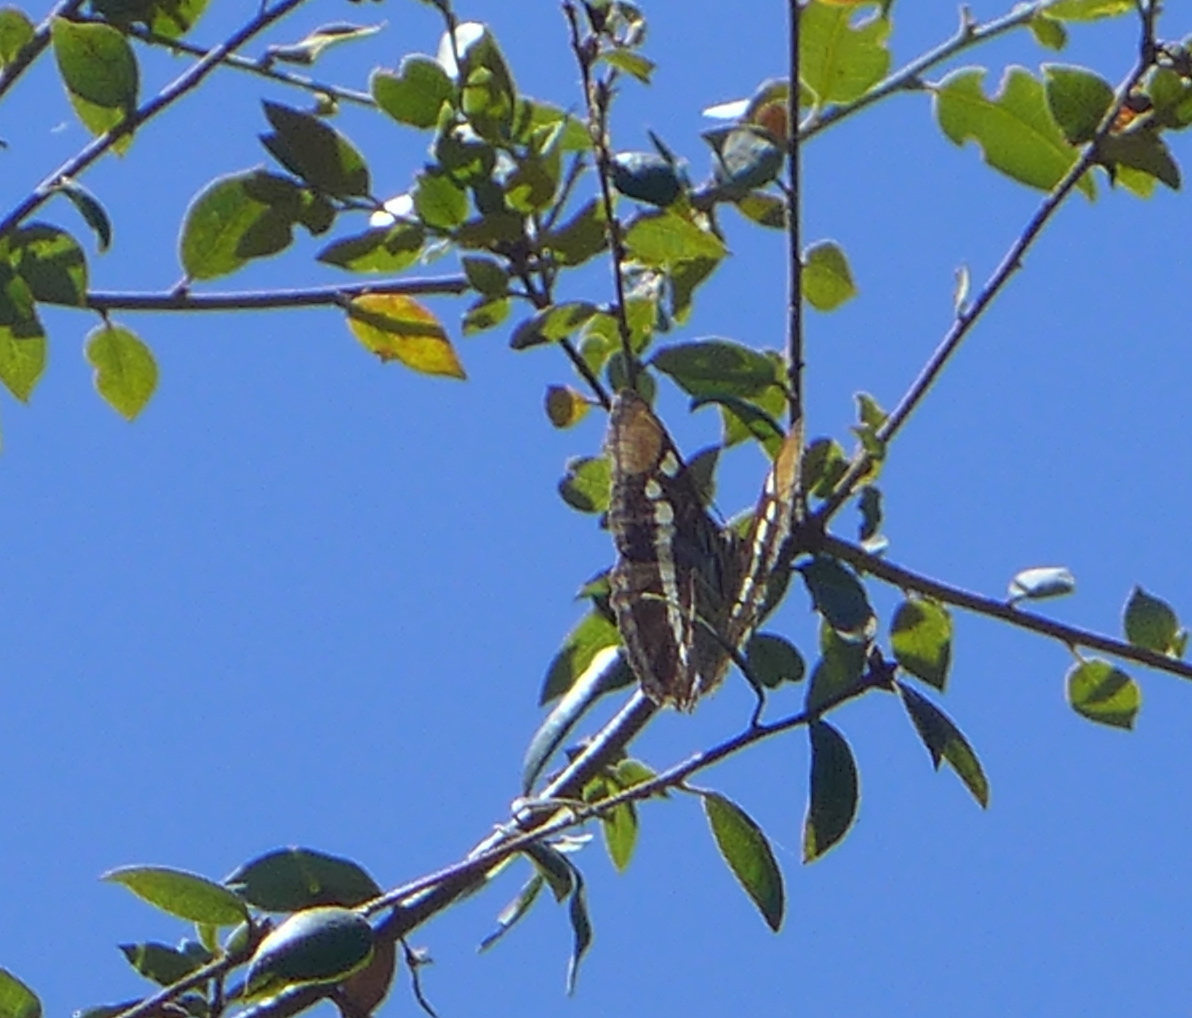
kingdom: Animalia
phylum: Arthropoda
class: Insecta
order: Lepidoptera
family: Nymphalidae
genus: Limenitis
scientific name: Limenitis bredowii
